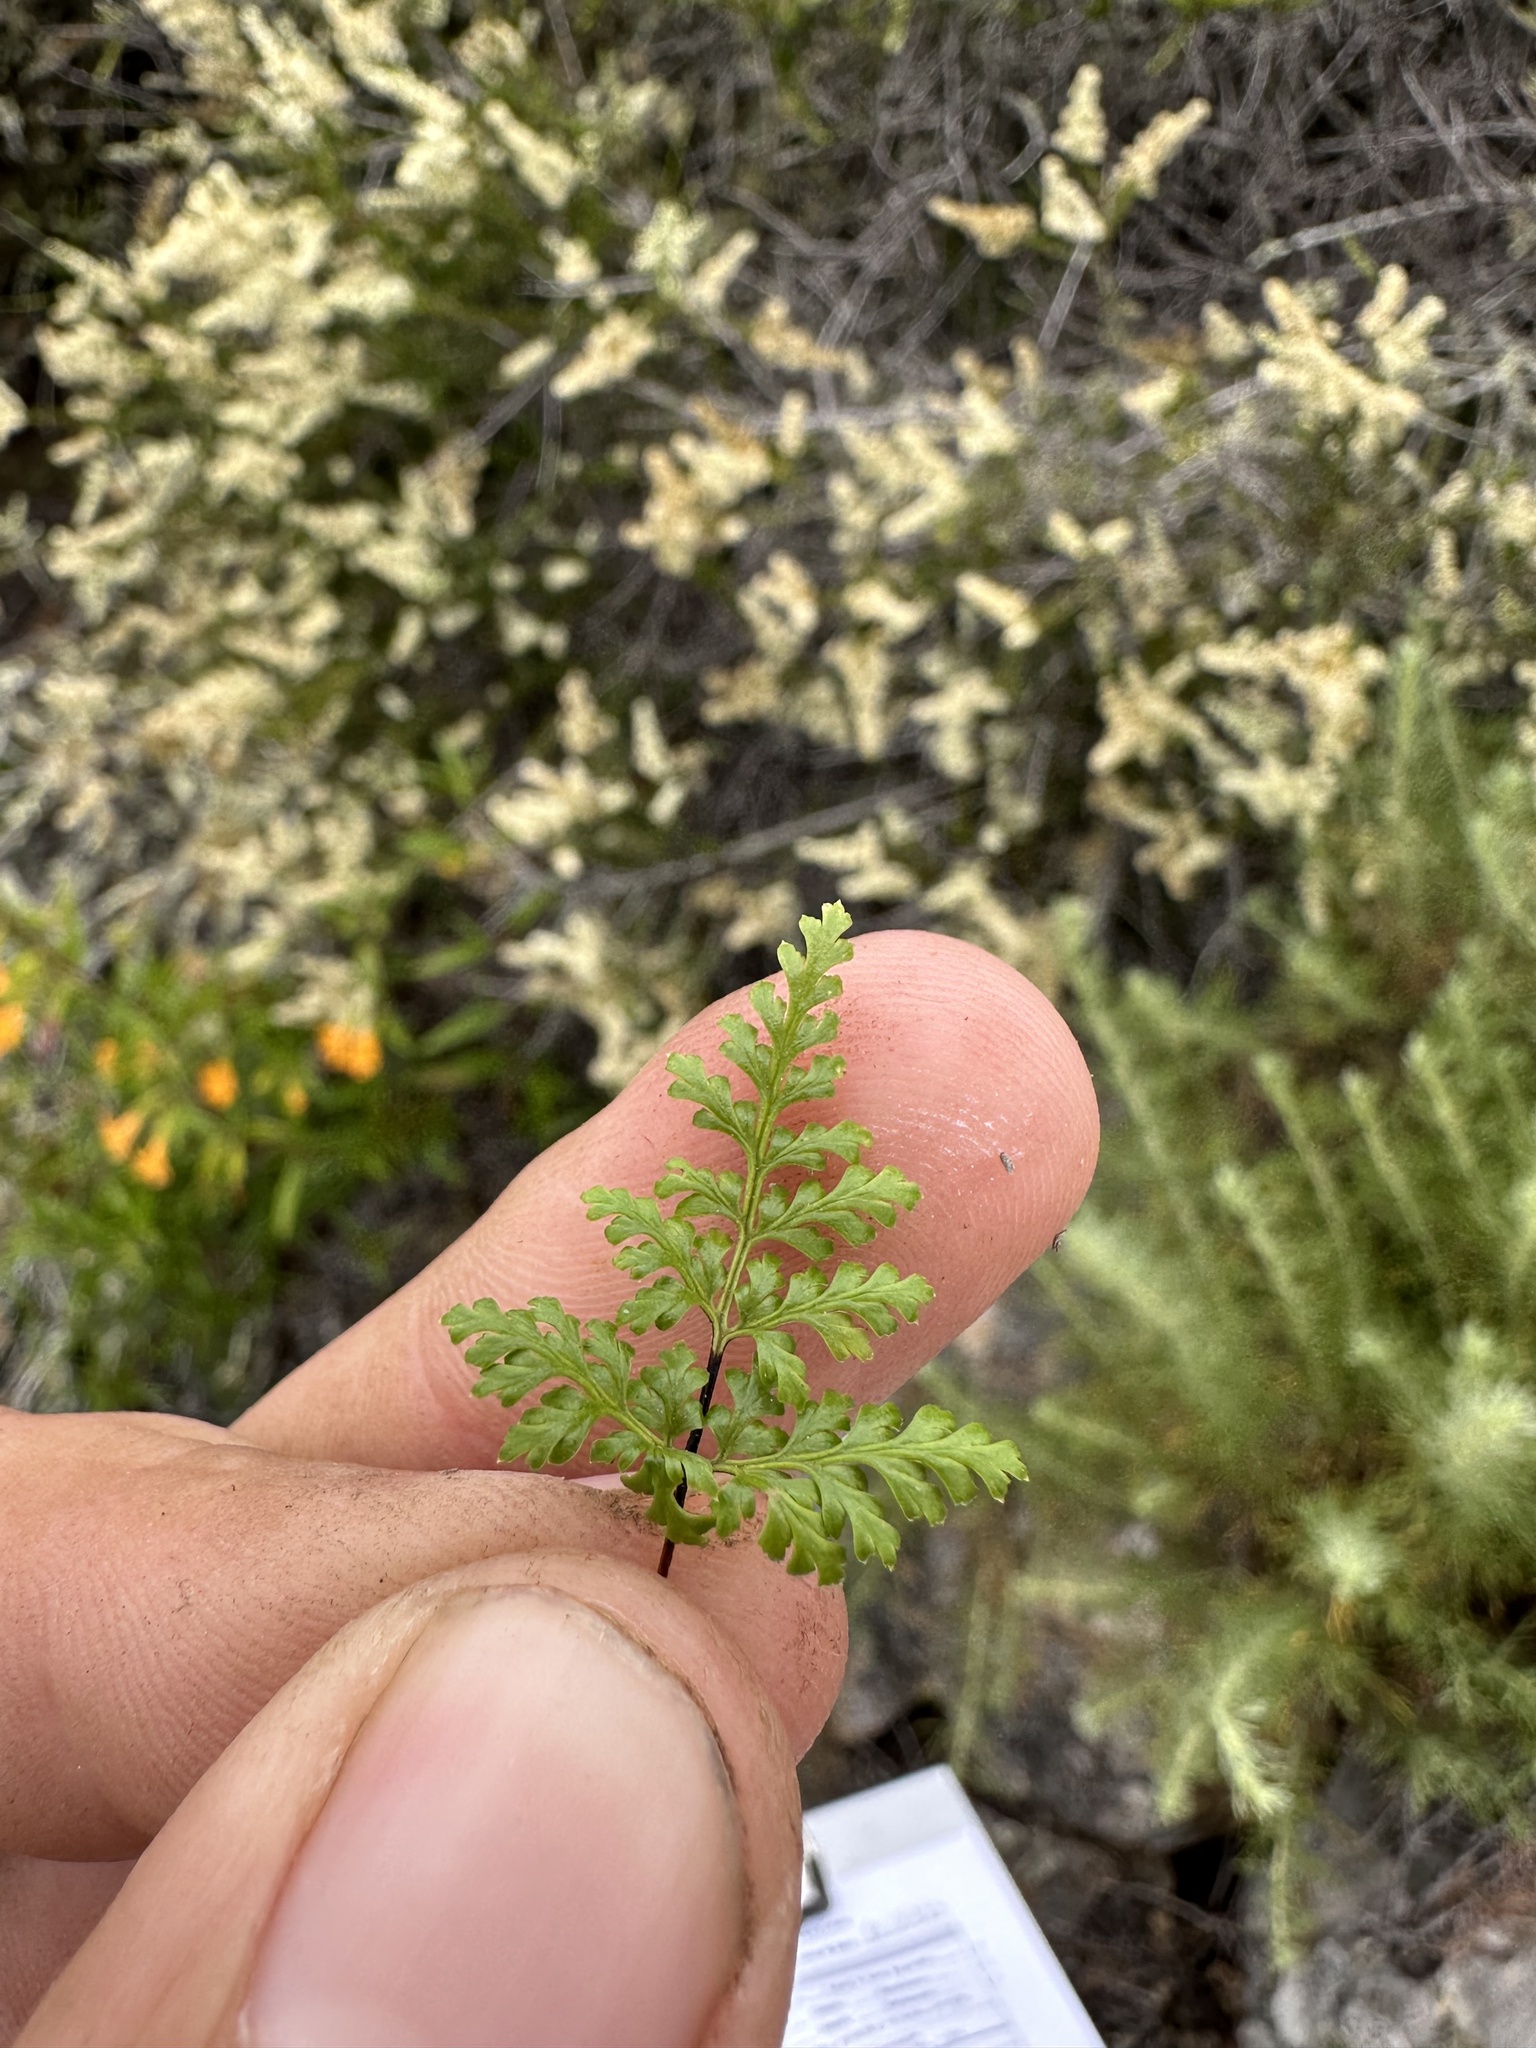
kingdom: Plantae
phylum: Tracheophyta
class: Polypodiopsida
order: Polypodiales
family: Pteridaceae
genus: Aspidotis
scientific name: Aspidotis californica
